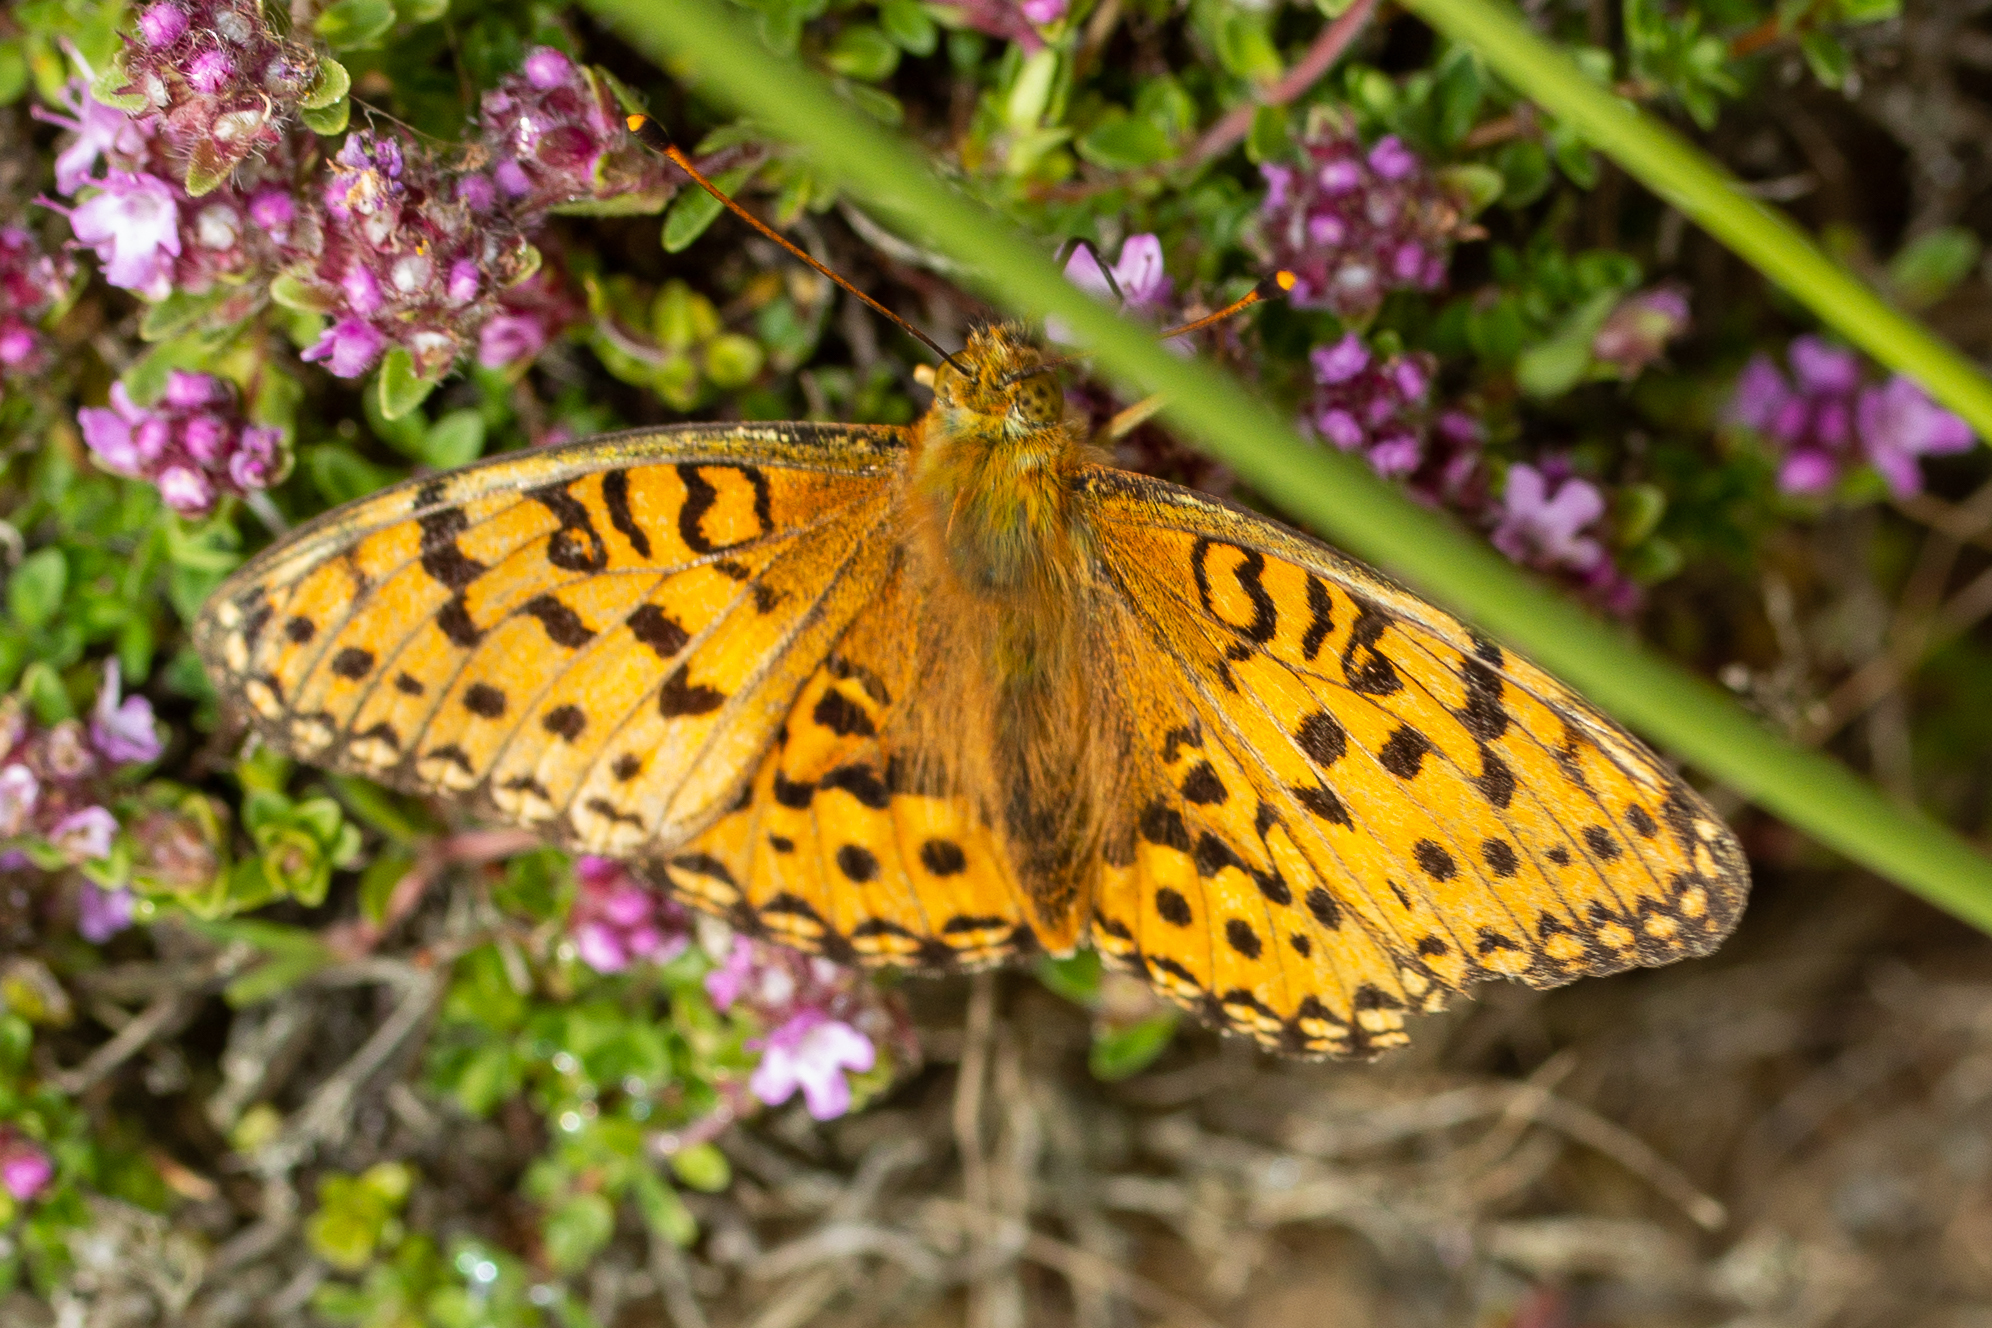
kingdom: Animalia
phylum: Arthropoda
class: Insecta
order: Lepidoptera
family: Nymphalidae
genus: Speyeria
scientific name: Speyeria aglaja
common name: Dark green fritillary
